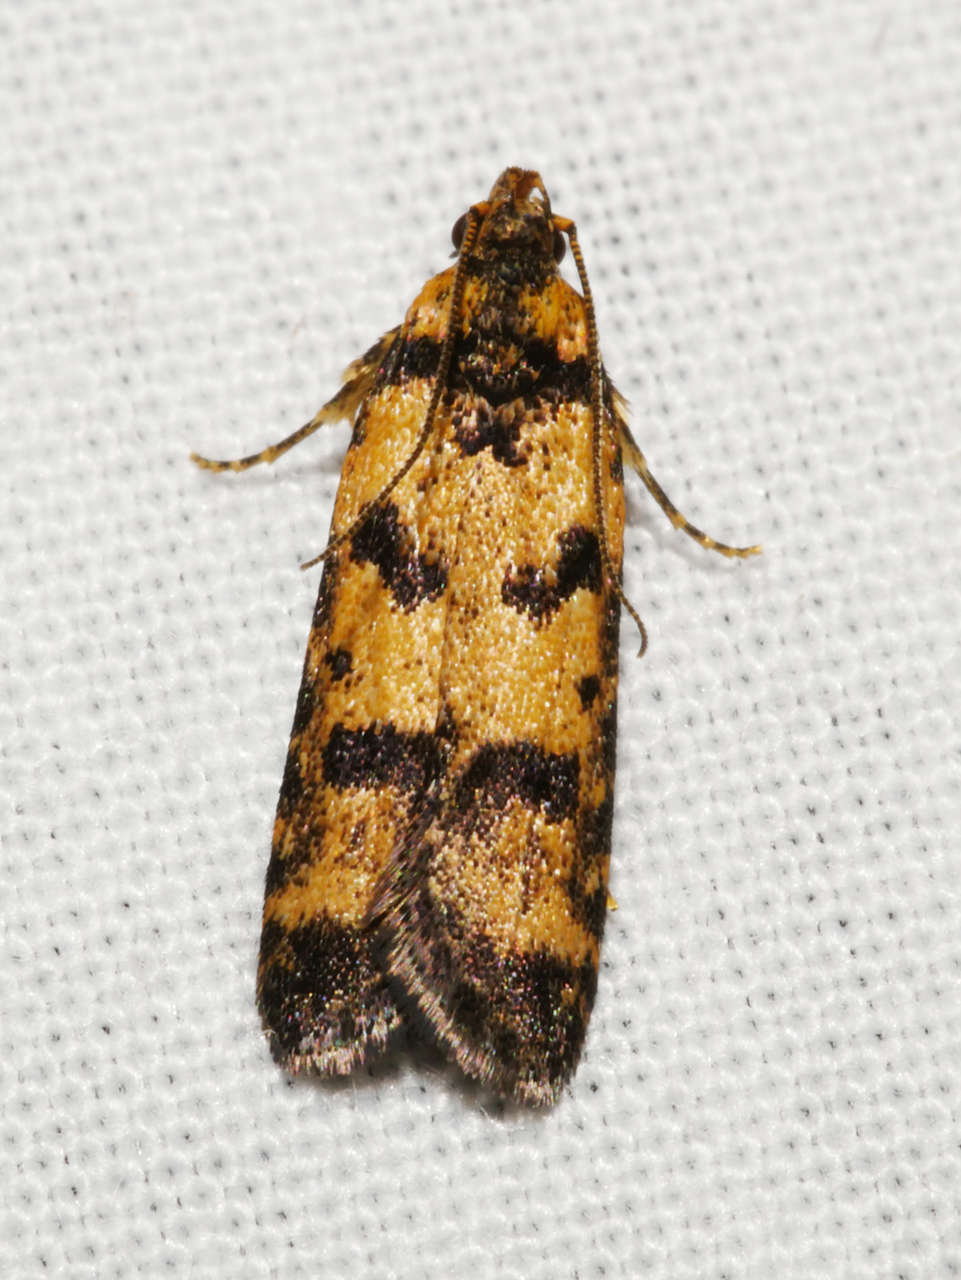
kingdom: Animalia
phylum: Arthropoda
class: Insecta
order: Lepidoptera
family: Gelechiidae
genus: Ardozyga
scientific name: Ardozyga thermochroa
